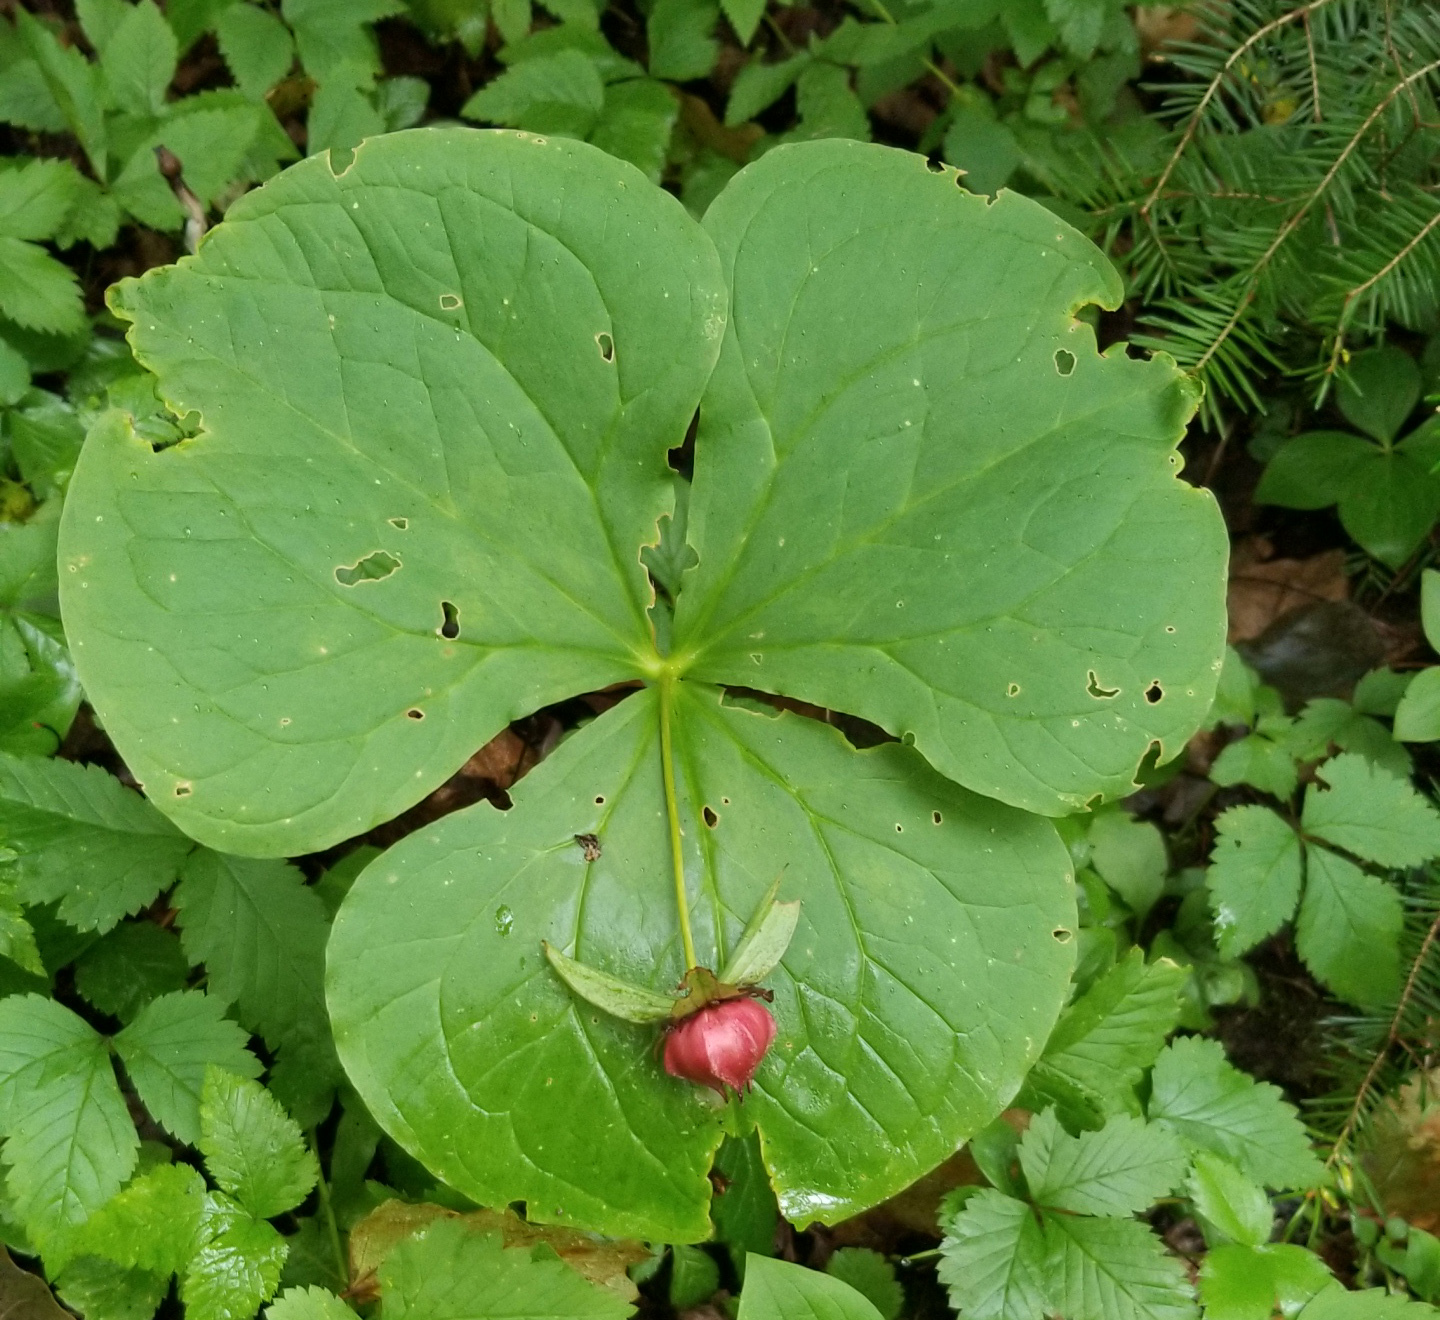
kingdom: Plantae
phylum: Tracheophyta
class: Liliopsida
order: Liliales
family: Melanthiaceae
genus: Trillium
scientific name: Trillium erectum
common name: Purple trillium
